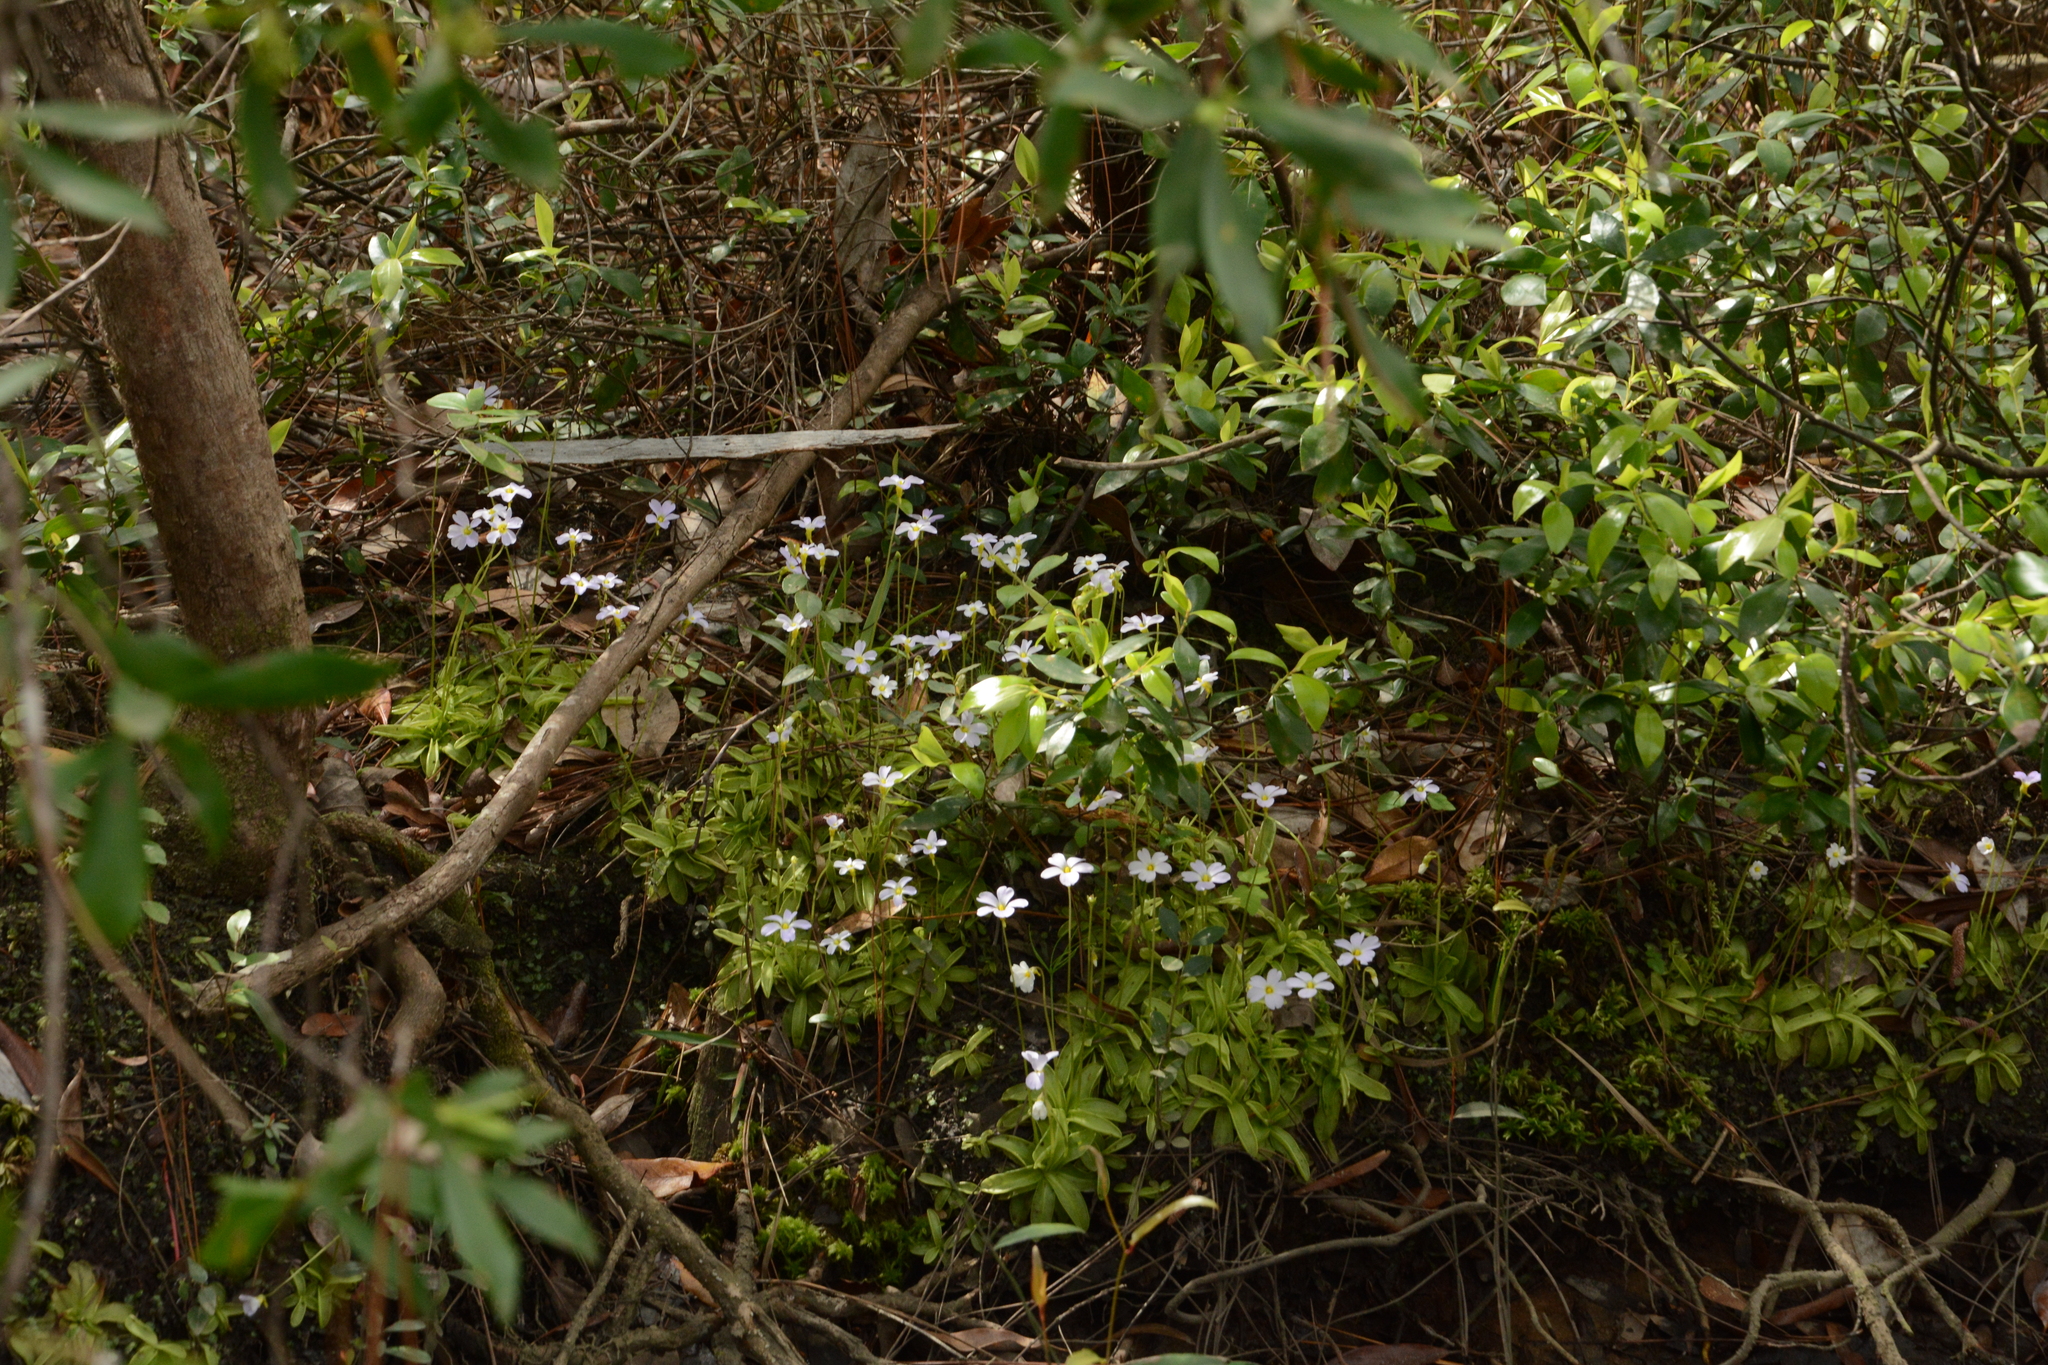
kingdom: Plantae
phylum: Tracheophyta
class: Magnoliopsida
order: Lamiales
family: Lentibulariaceae
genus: Pinguicula
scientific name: Pinguicula primuliflora
